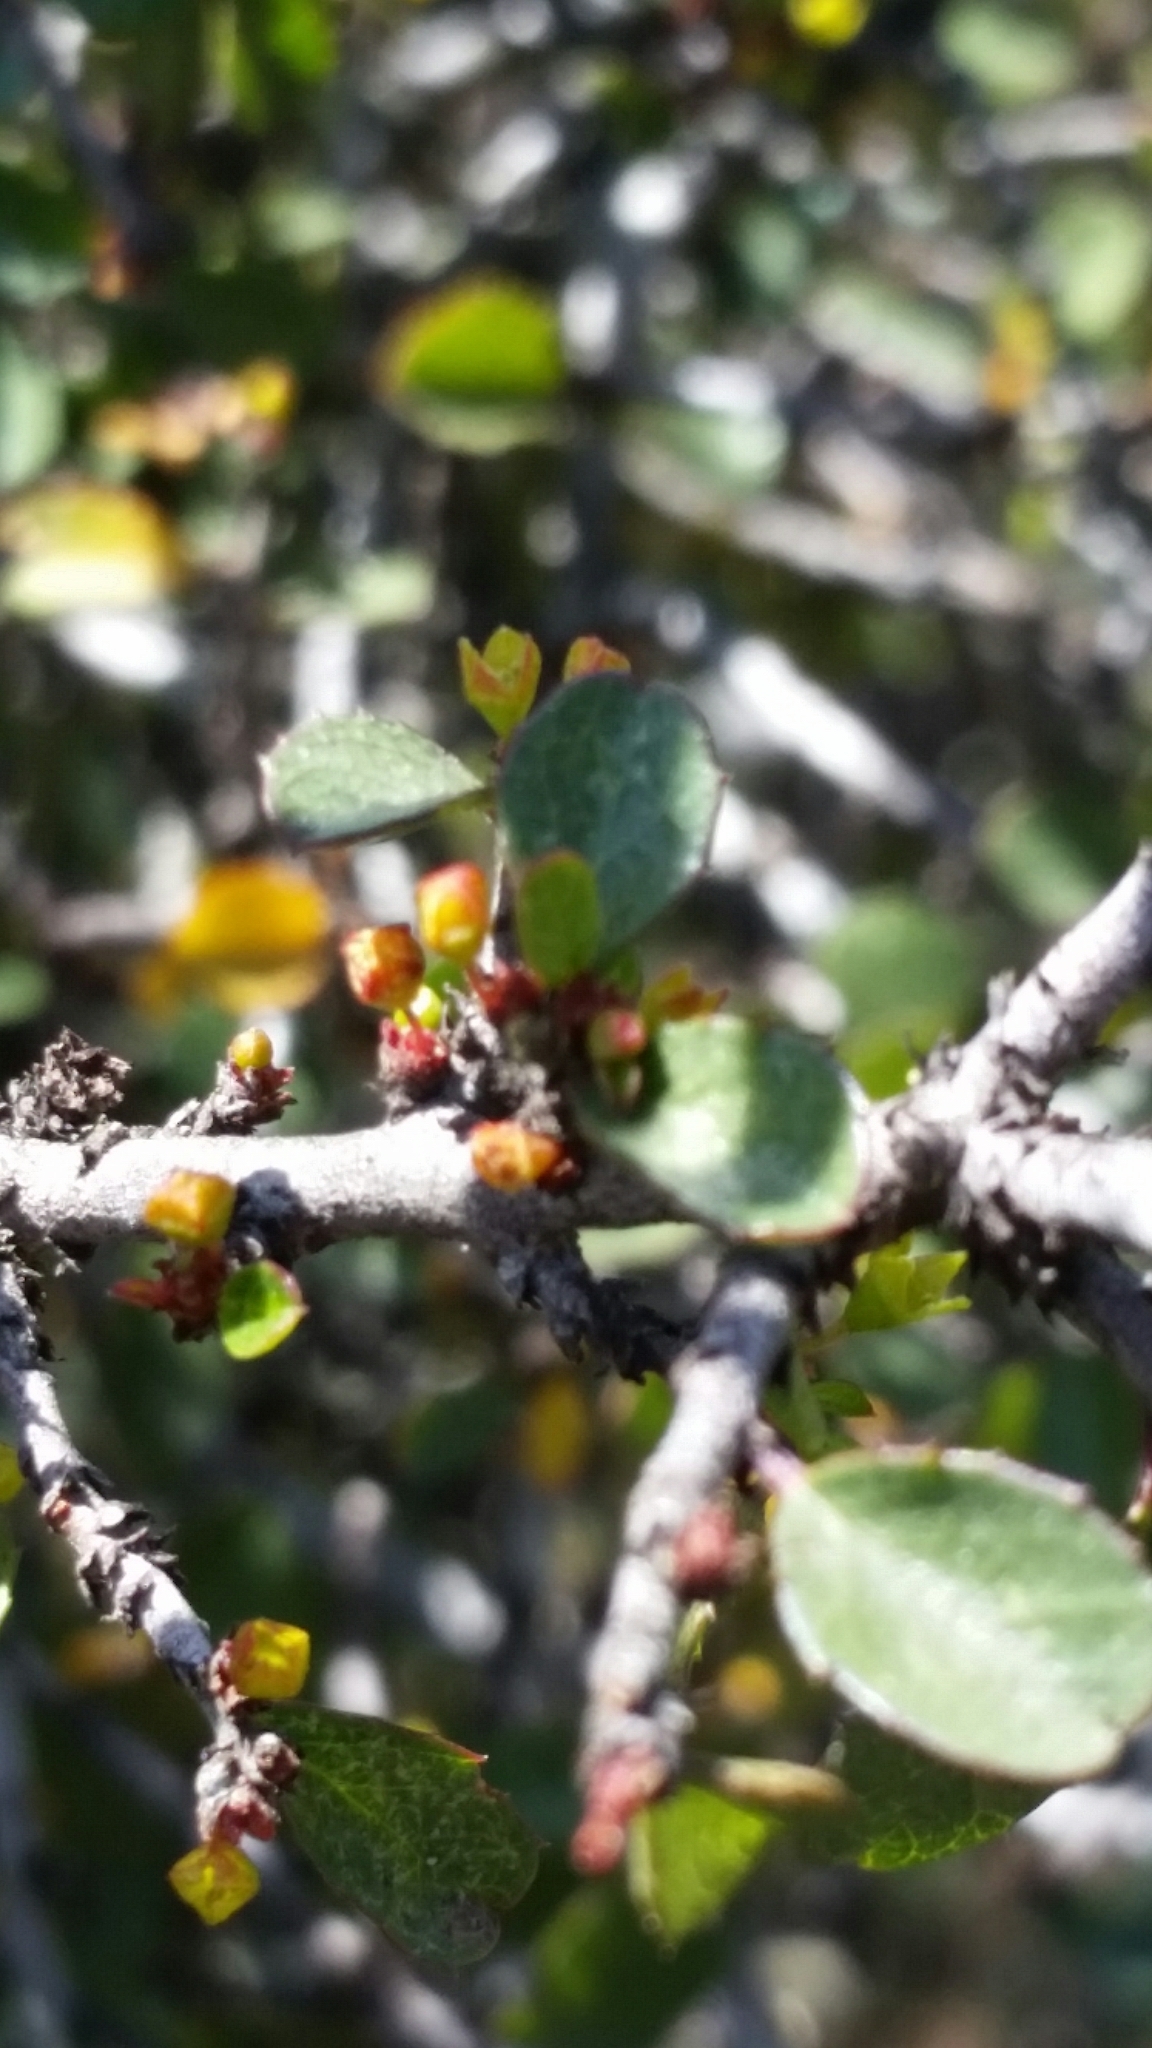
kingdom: Plantae
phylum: Tracheophyta
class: Magnoliopsida
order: Rosales
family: Rhamnaceae
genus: Endotropis
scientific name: Endotropis crocea
